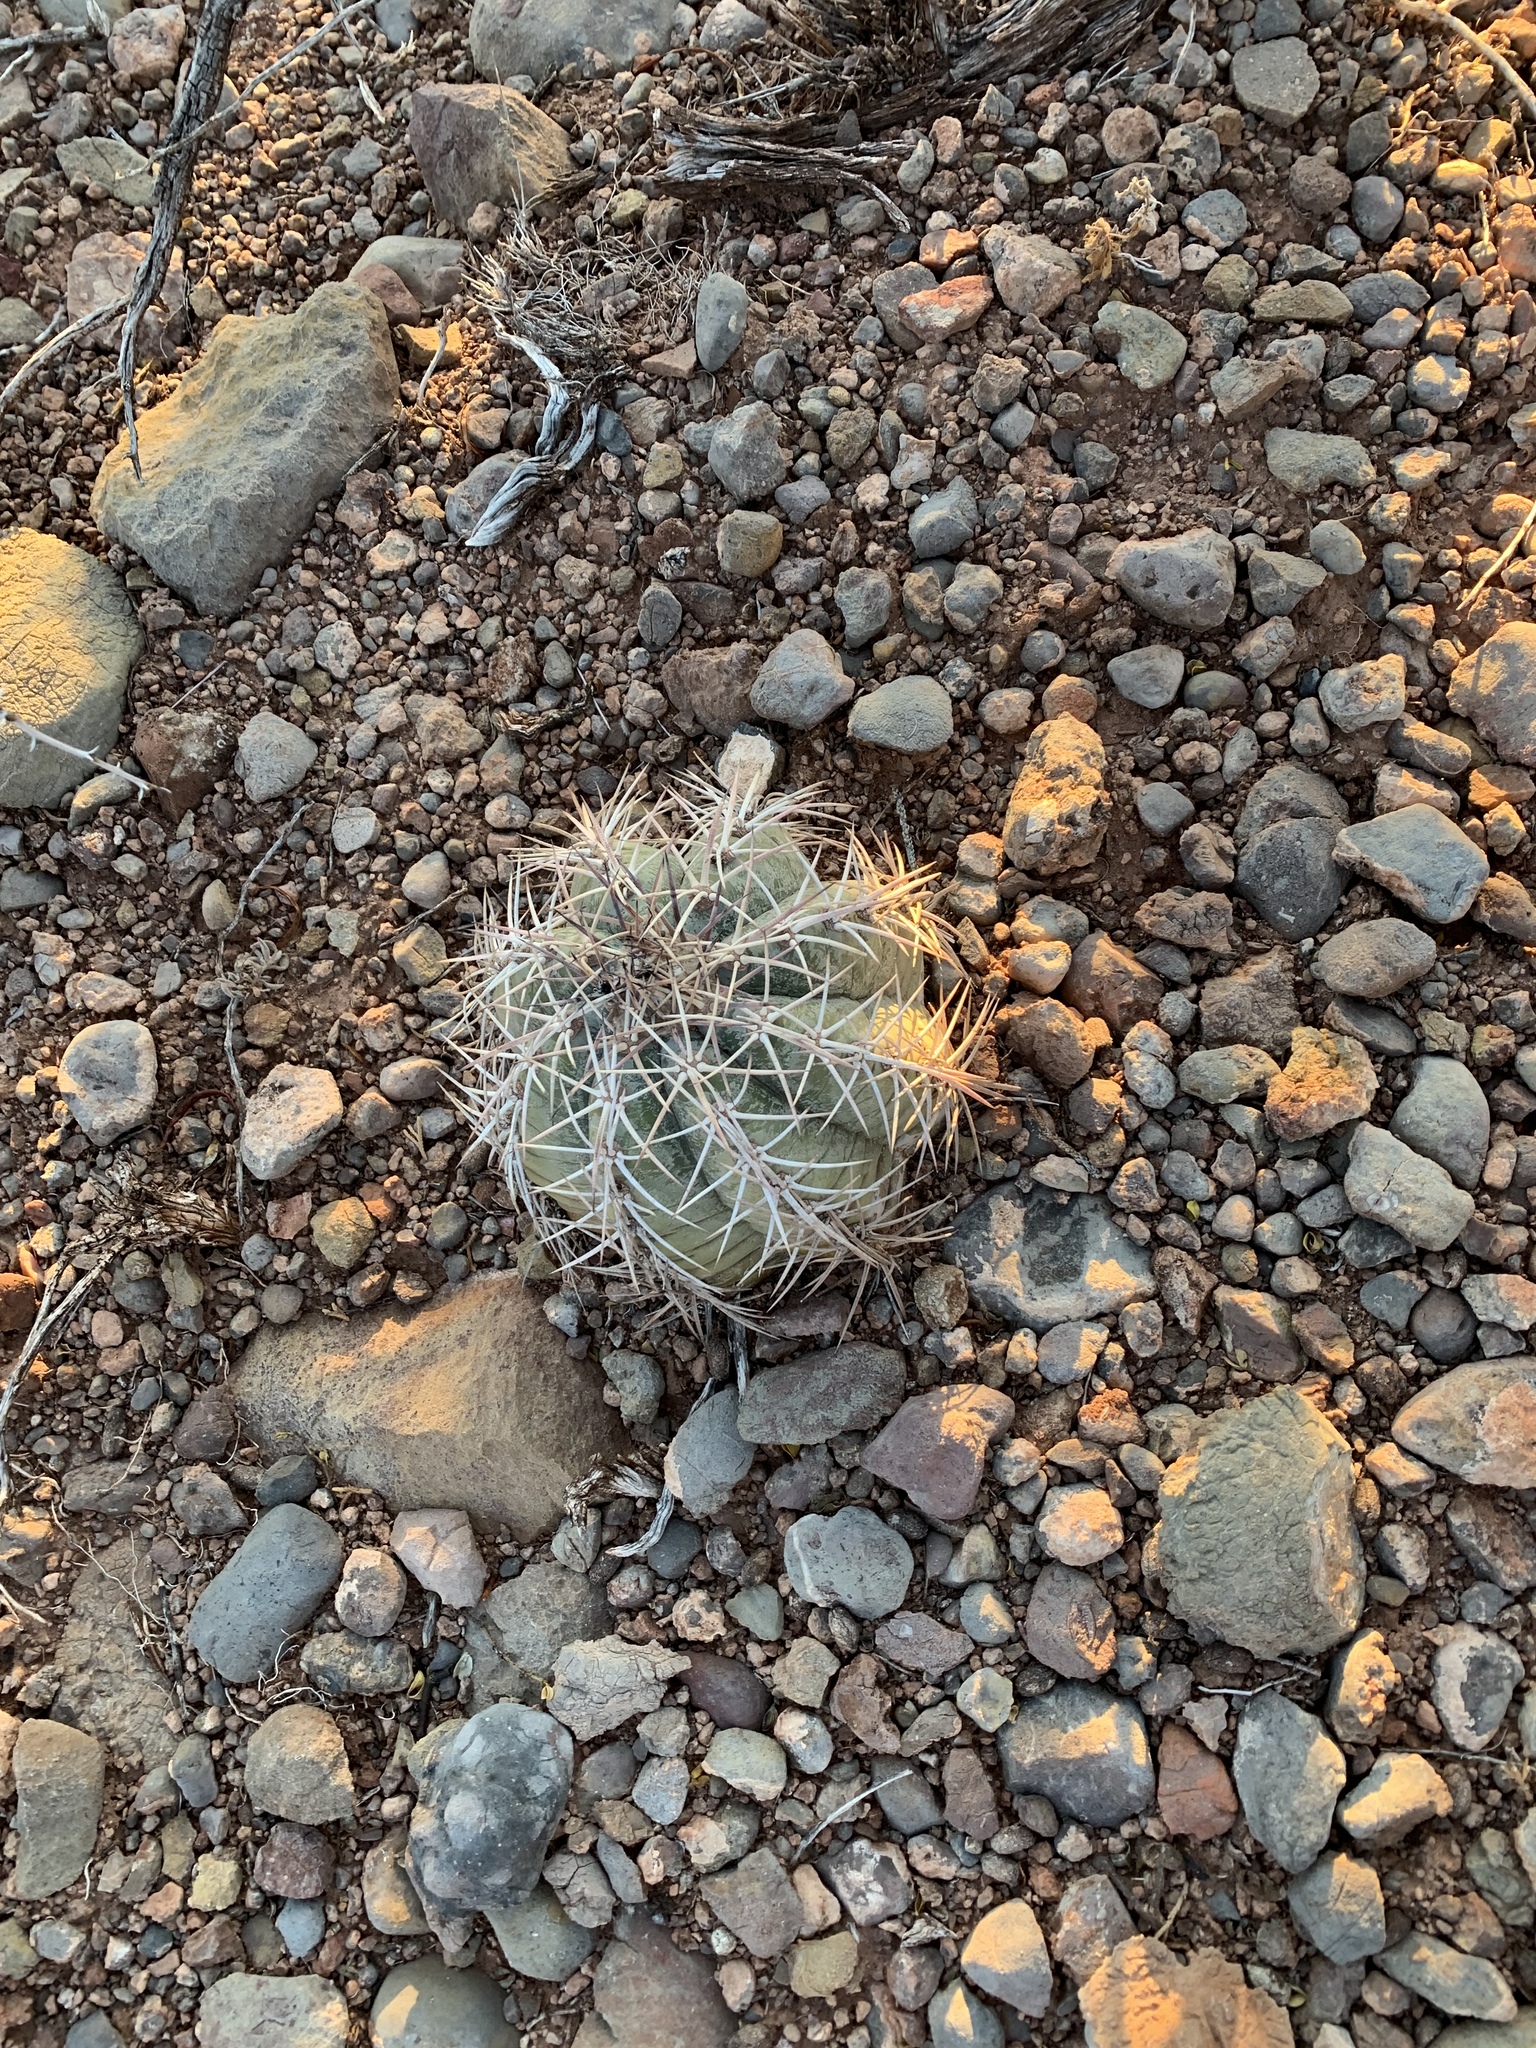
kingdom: Plantae
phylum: Tracheophyta
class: Magnoliopsida
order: Caryophyllales
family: Cactaceae
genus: Echinocactus
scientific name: Echinocactus horizonthalonius
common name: Devilshead
